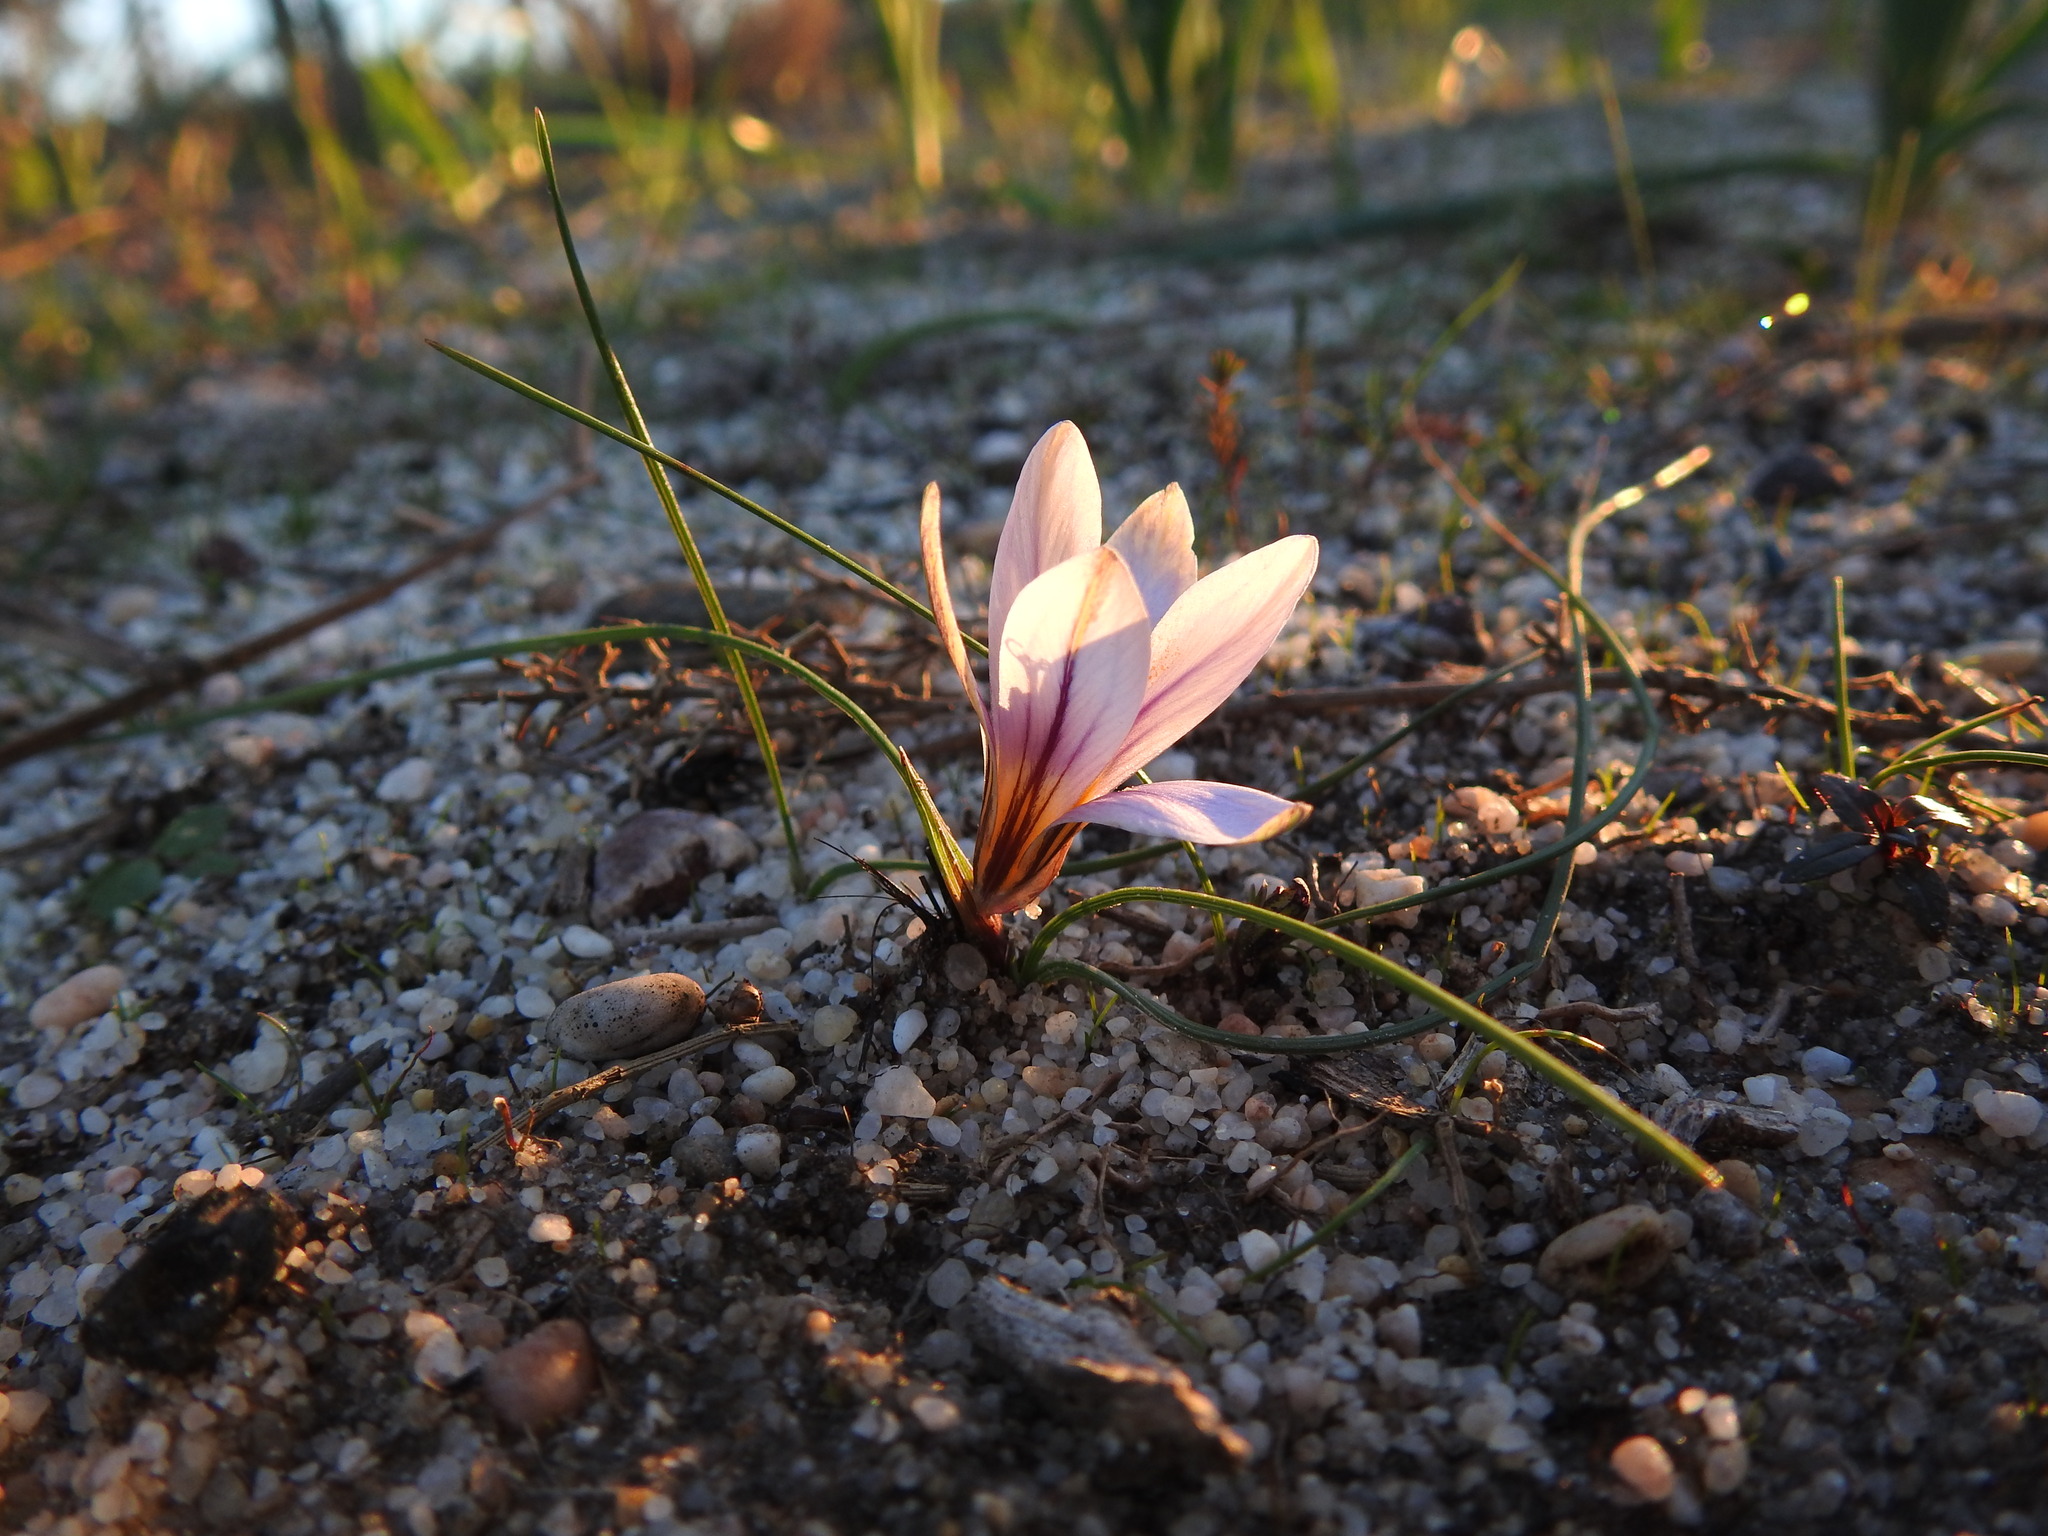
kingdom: Plantae
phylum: Tracheophyta
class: Liliopsida
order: Asparagales
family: Iridaceae
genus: Romulea
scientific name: Romulea bulbocodium
